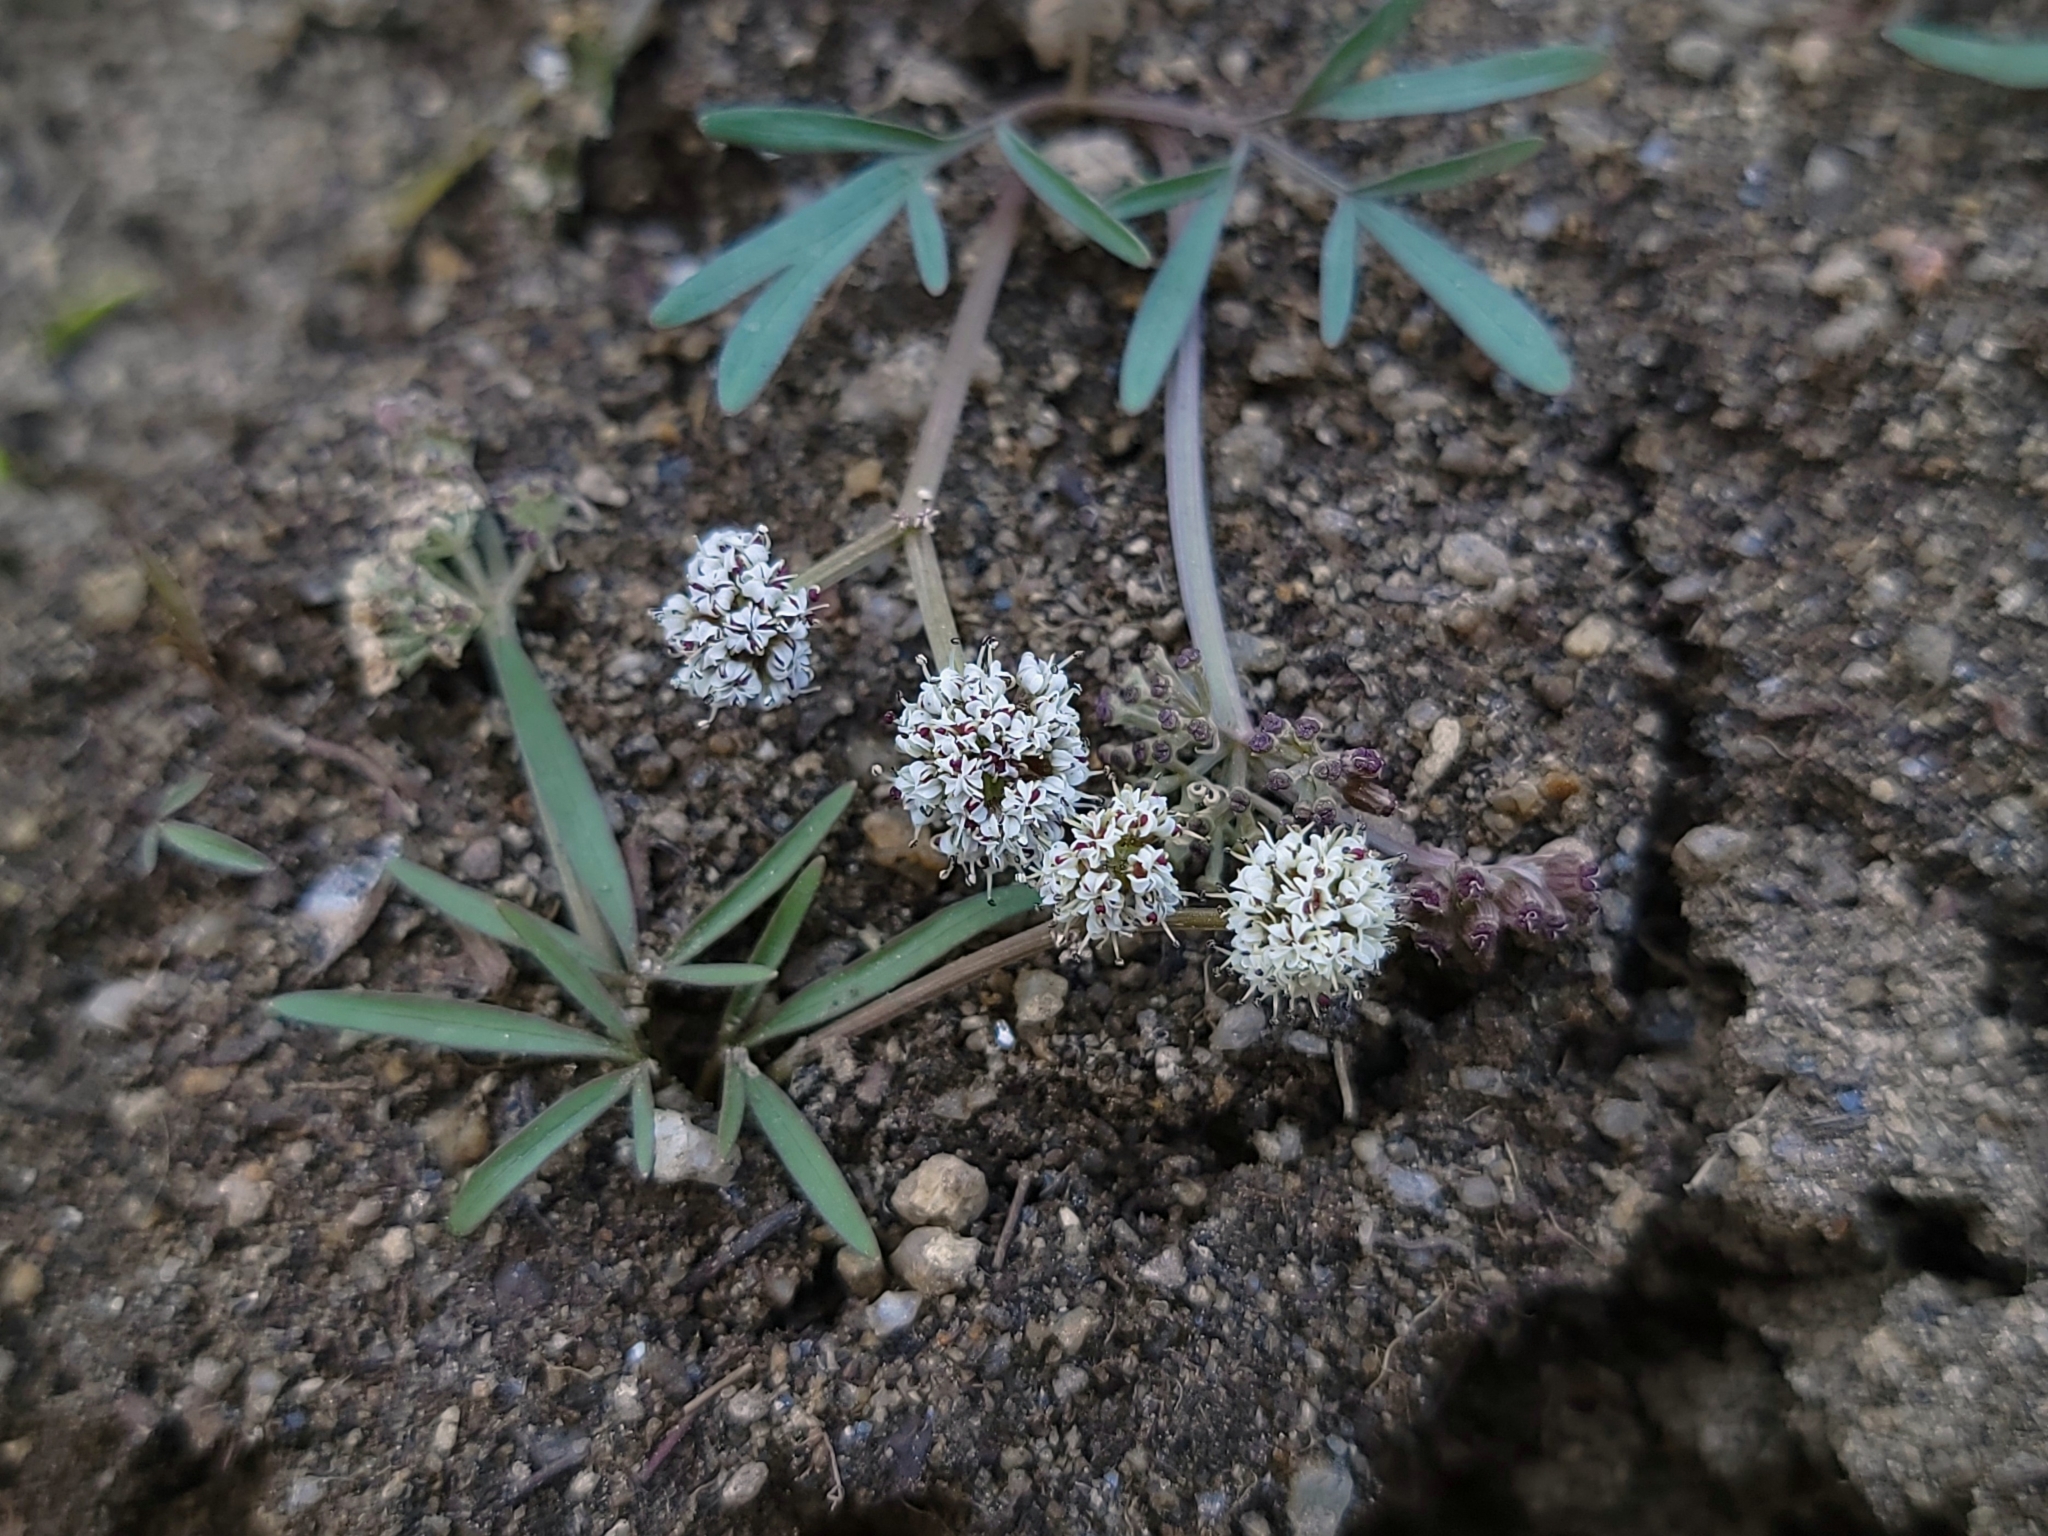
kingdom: Plantae
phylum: Tracheophyta
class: Magnoliopsida
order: Apiales
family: Apiaceae
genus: Lomatium
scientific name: Lomatium linearifolium
